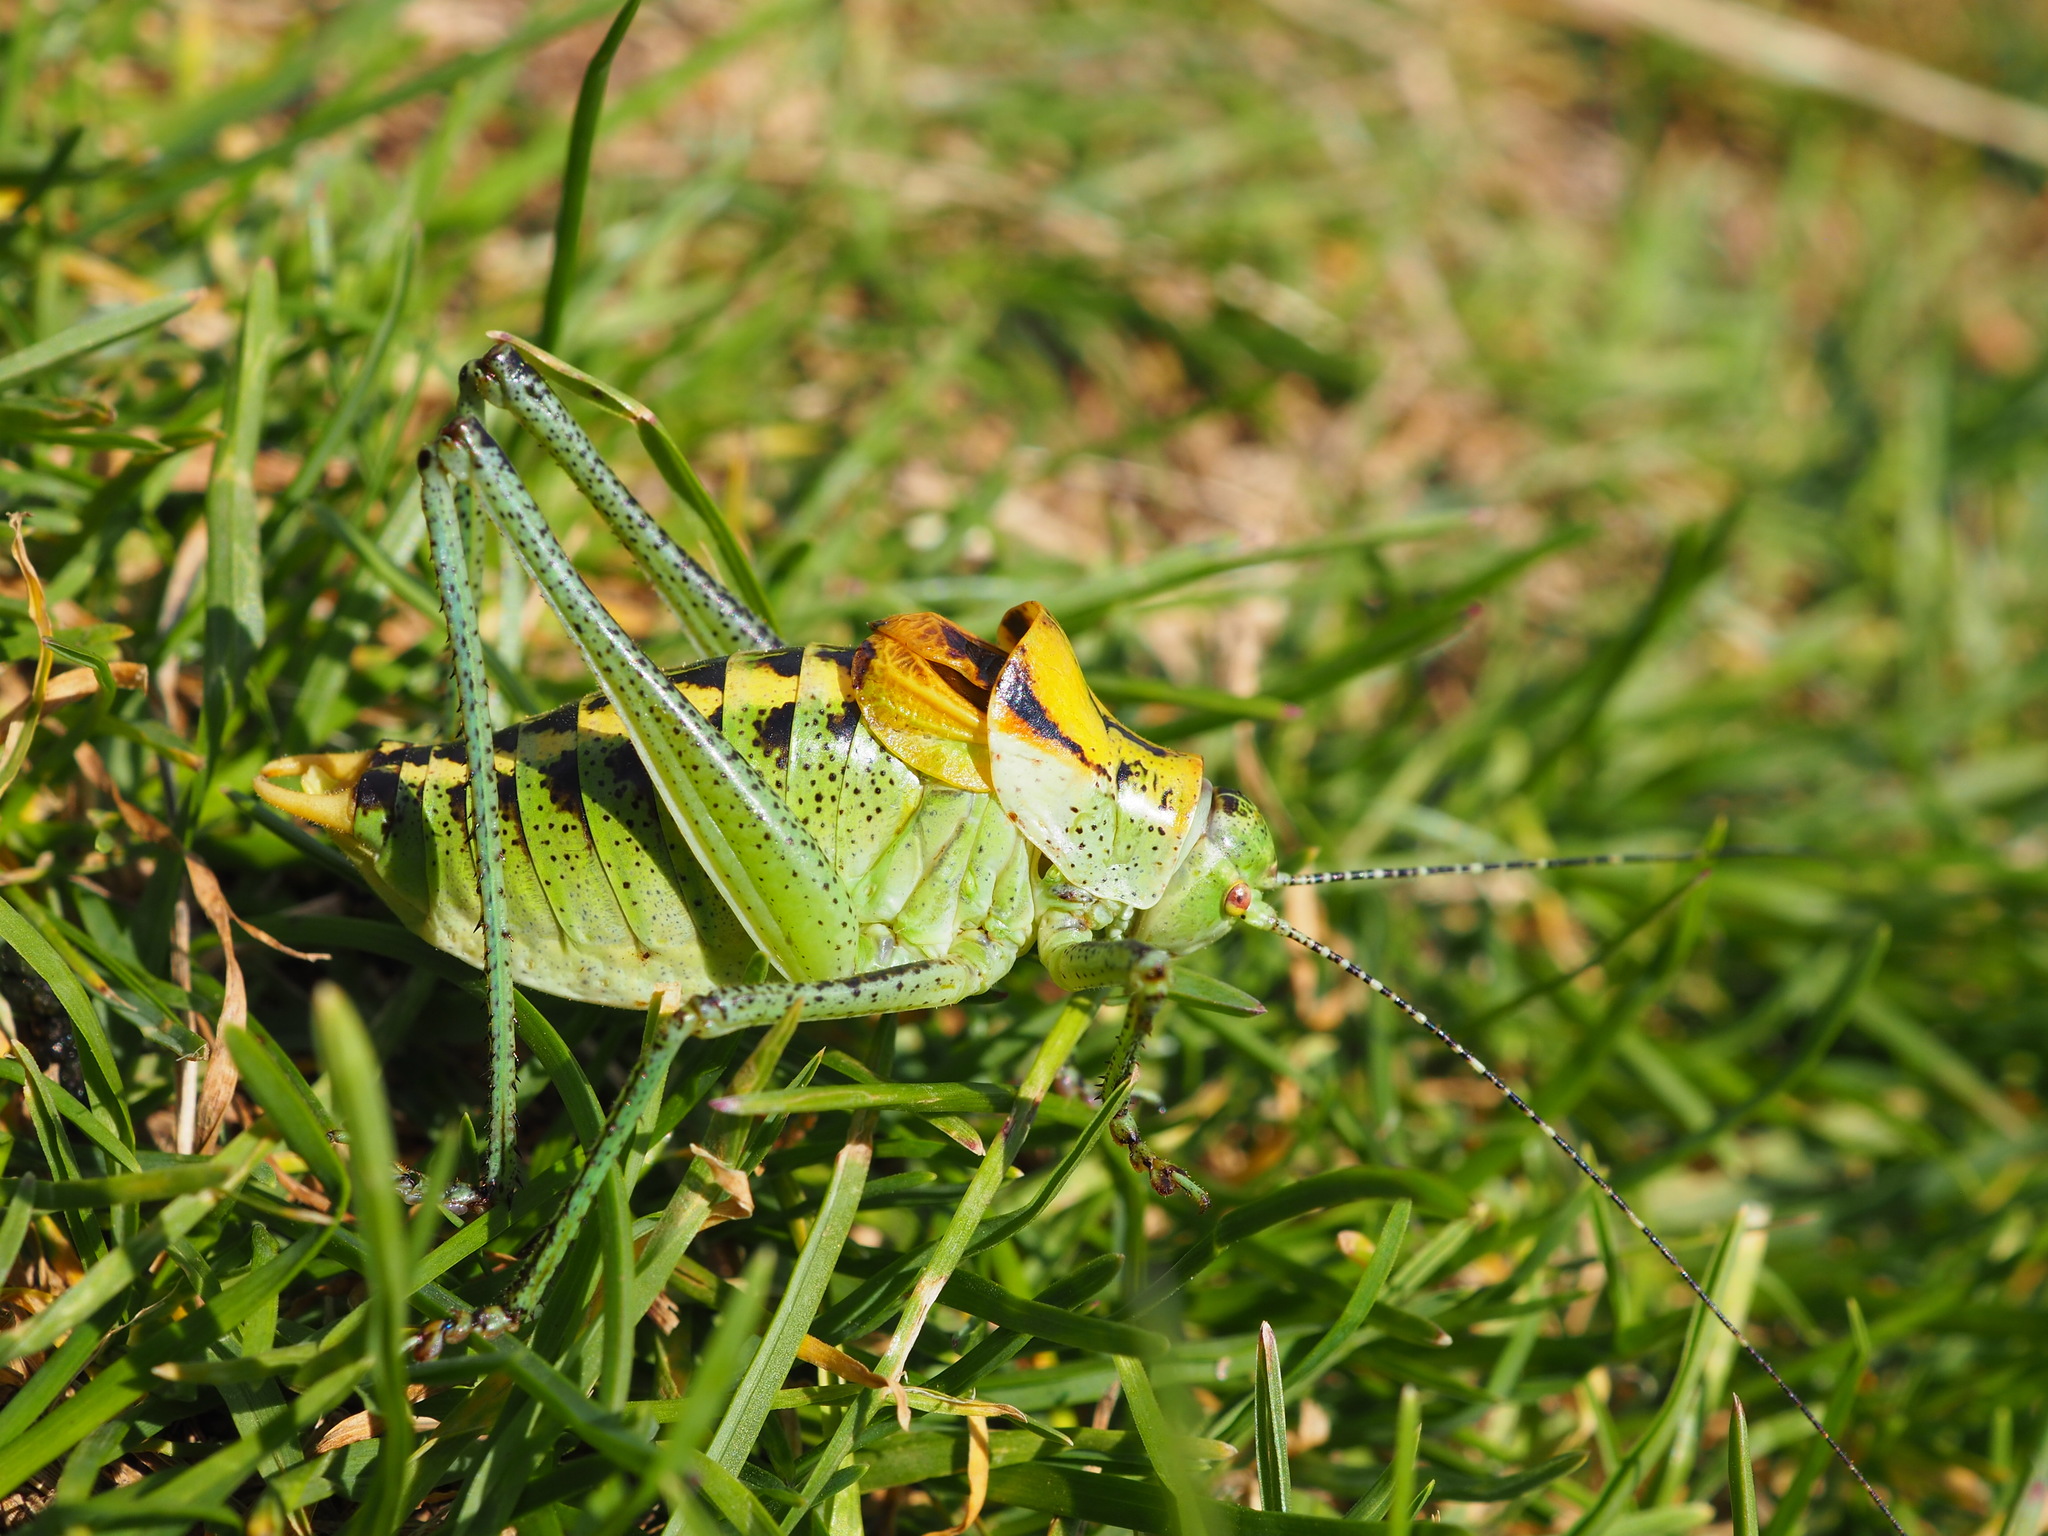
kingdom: Animalia
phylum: Arthropoda
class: Insecta
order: Orthoptera
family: Tettigoniidae
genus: Poecilimon
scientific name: Poecilimon ornatus
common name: Ornate bright bush-cricket
